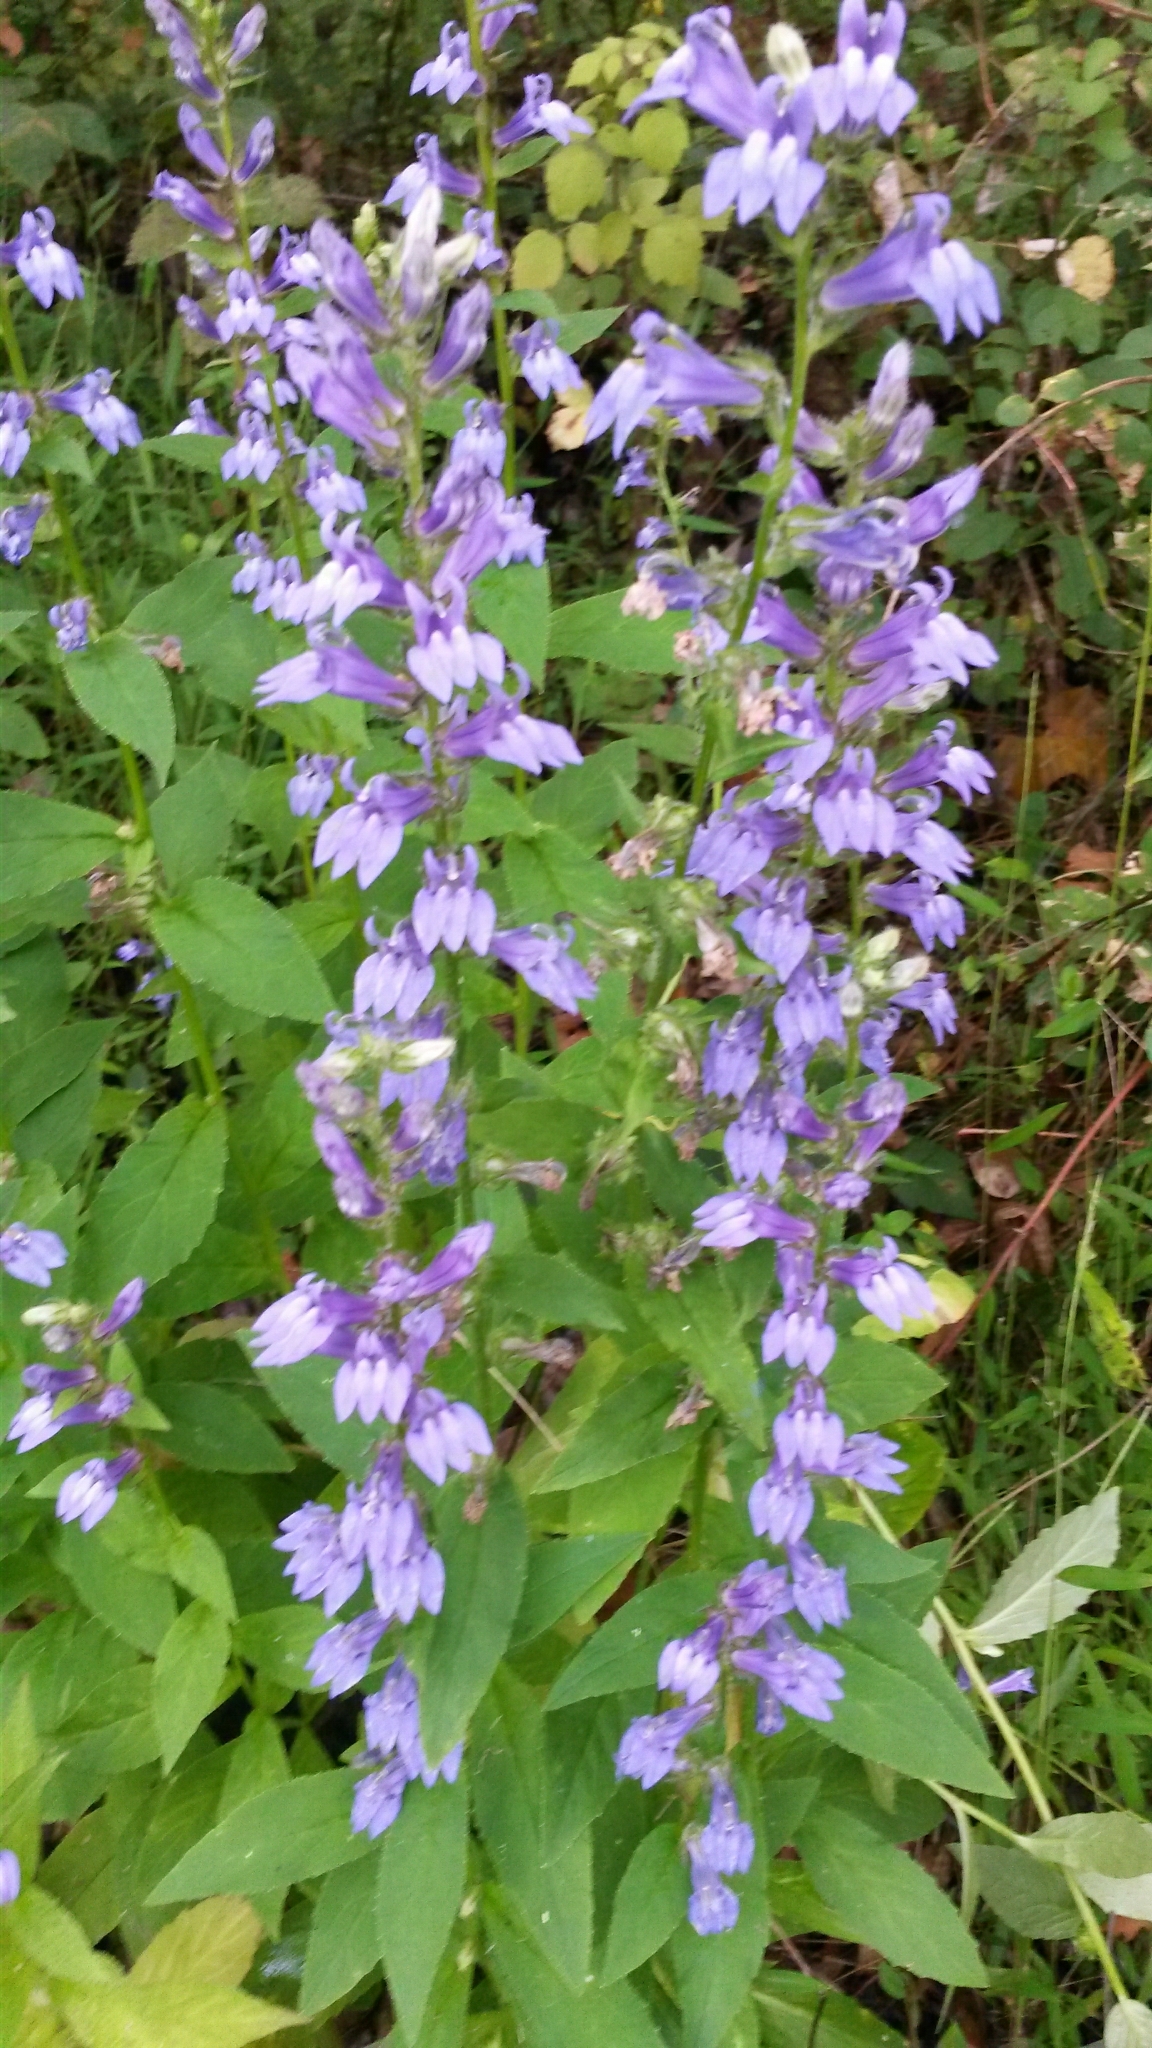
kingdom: Plantae
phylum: Tracheophyta
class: Magnoliopsida
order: Asterales
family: Campanulaceae
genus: Lobelia
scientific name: Lobelia siphilitica
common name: Great lobelia
